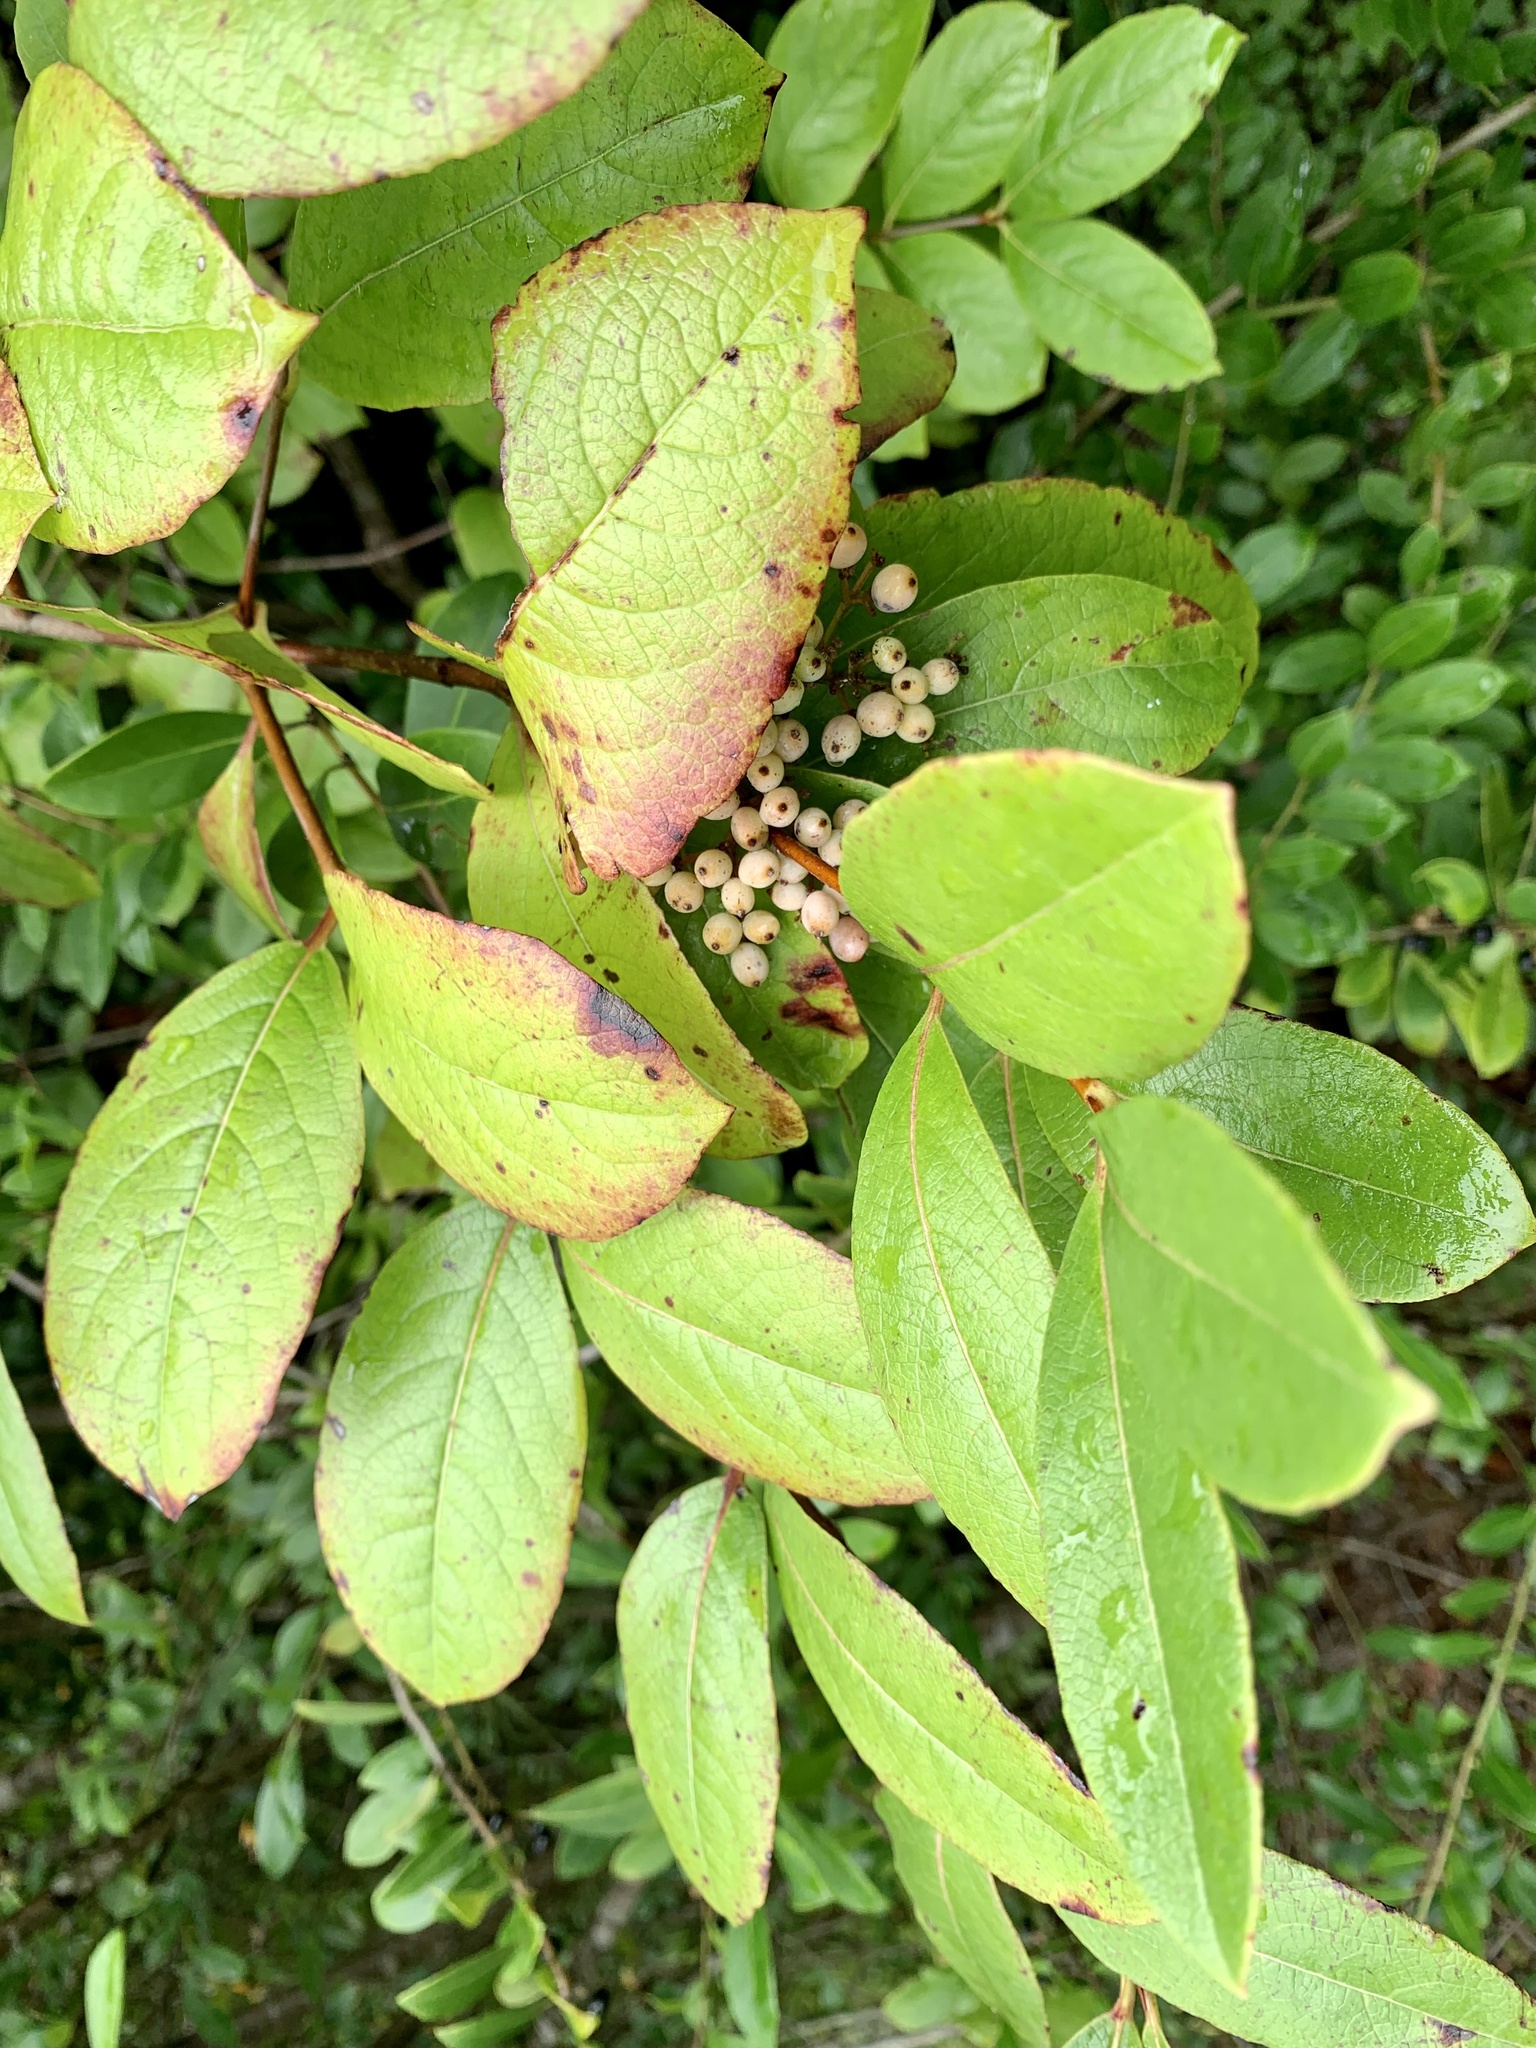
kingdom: Plantae
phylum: Tracheophyta
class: Magnoliopsida
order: Dipsacales
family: Viburnaceae
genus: Viburnum
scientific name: Viburnum nudum
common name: Possum haw
